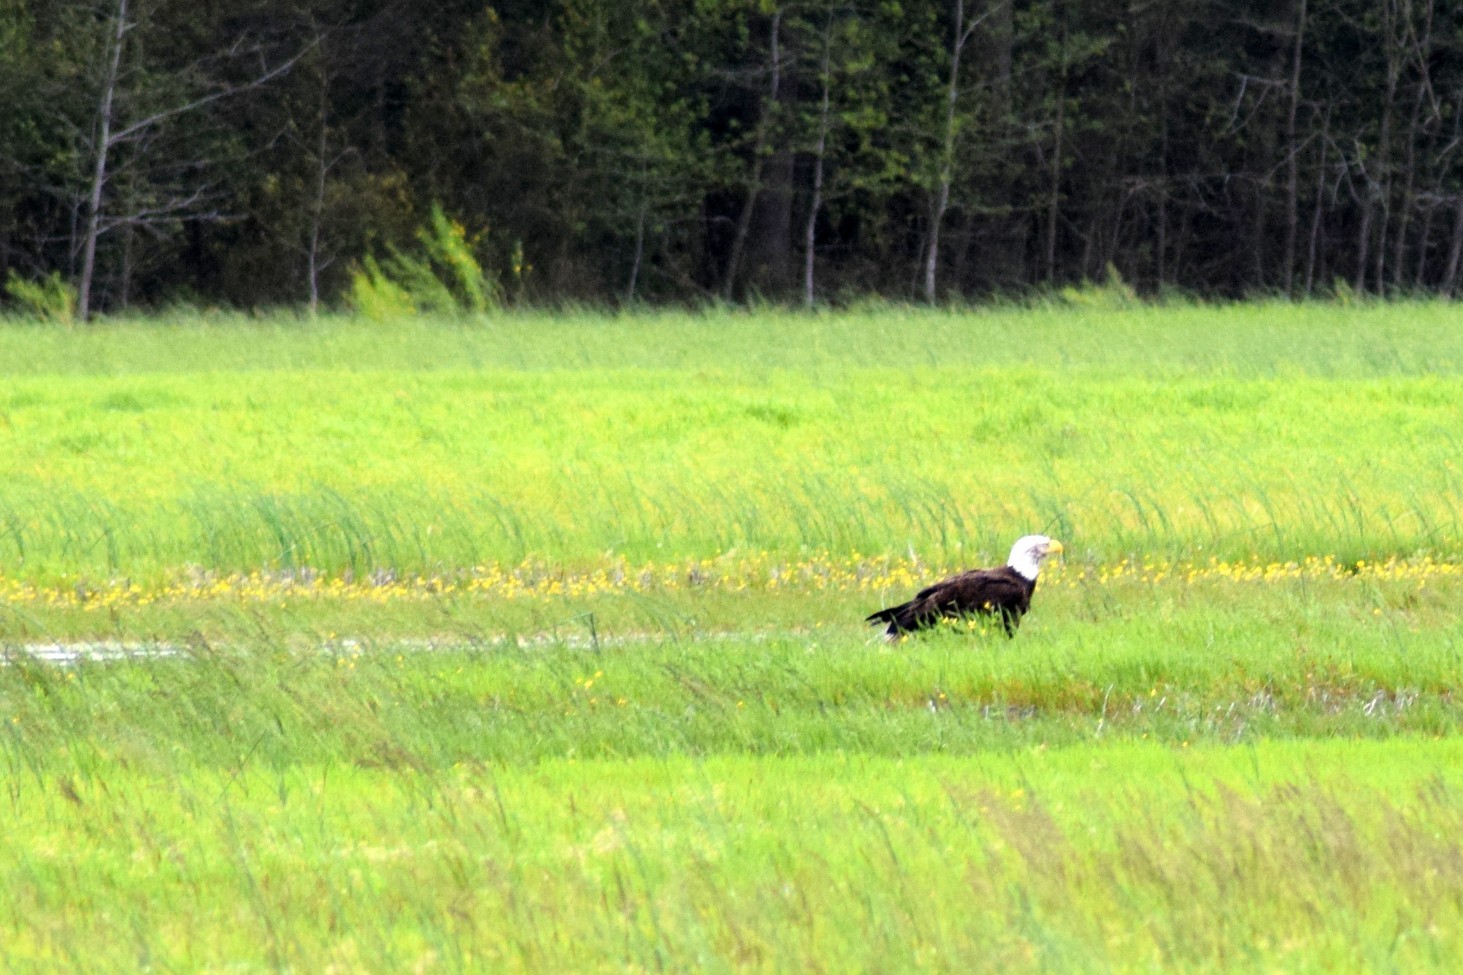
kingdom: Animalia
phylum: Chordata
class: Aves
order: Accipitriformes
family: Accipitridae
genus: Haliaeetus
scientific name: Haliaeetus leucocephalus
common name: Bald eagle
